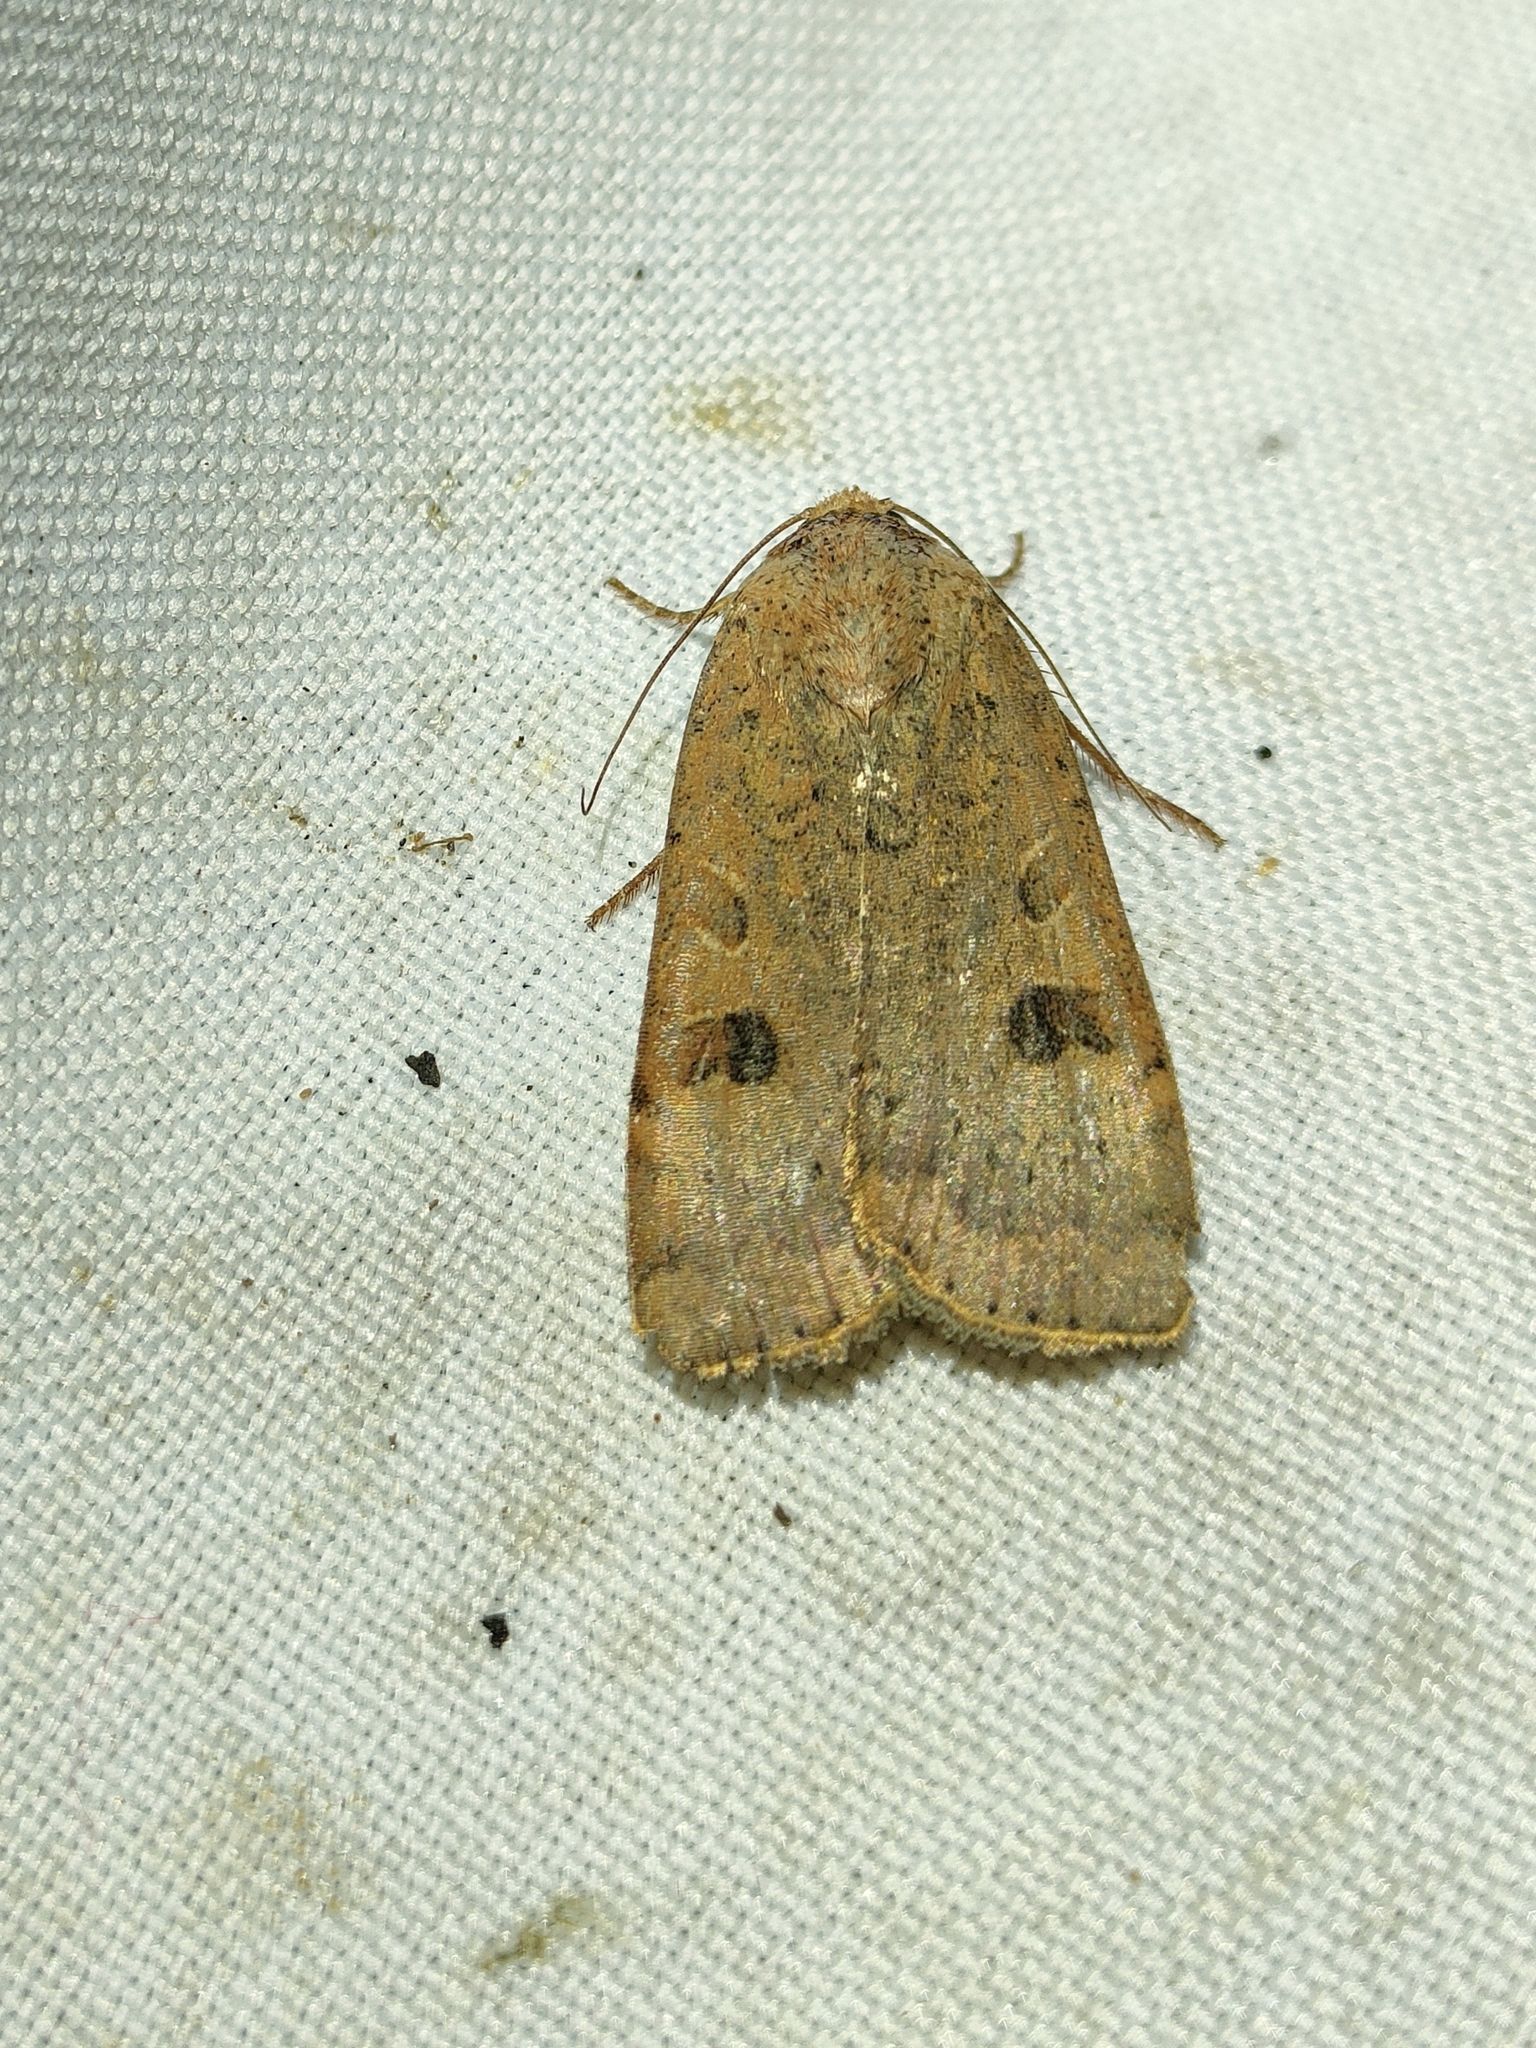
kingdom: Animalia
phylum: Arthropoda
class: Insecta
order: Lepidoptera
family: Noctuidae
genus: Noctua
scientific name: Noctua comes
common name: Lesser yellow underwing
